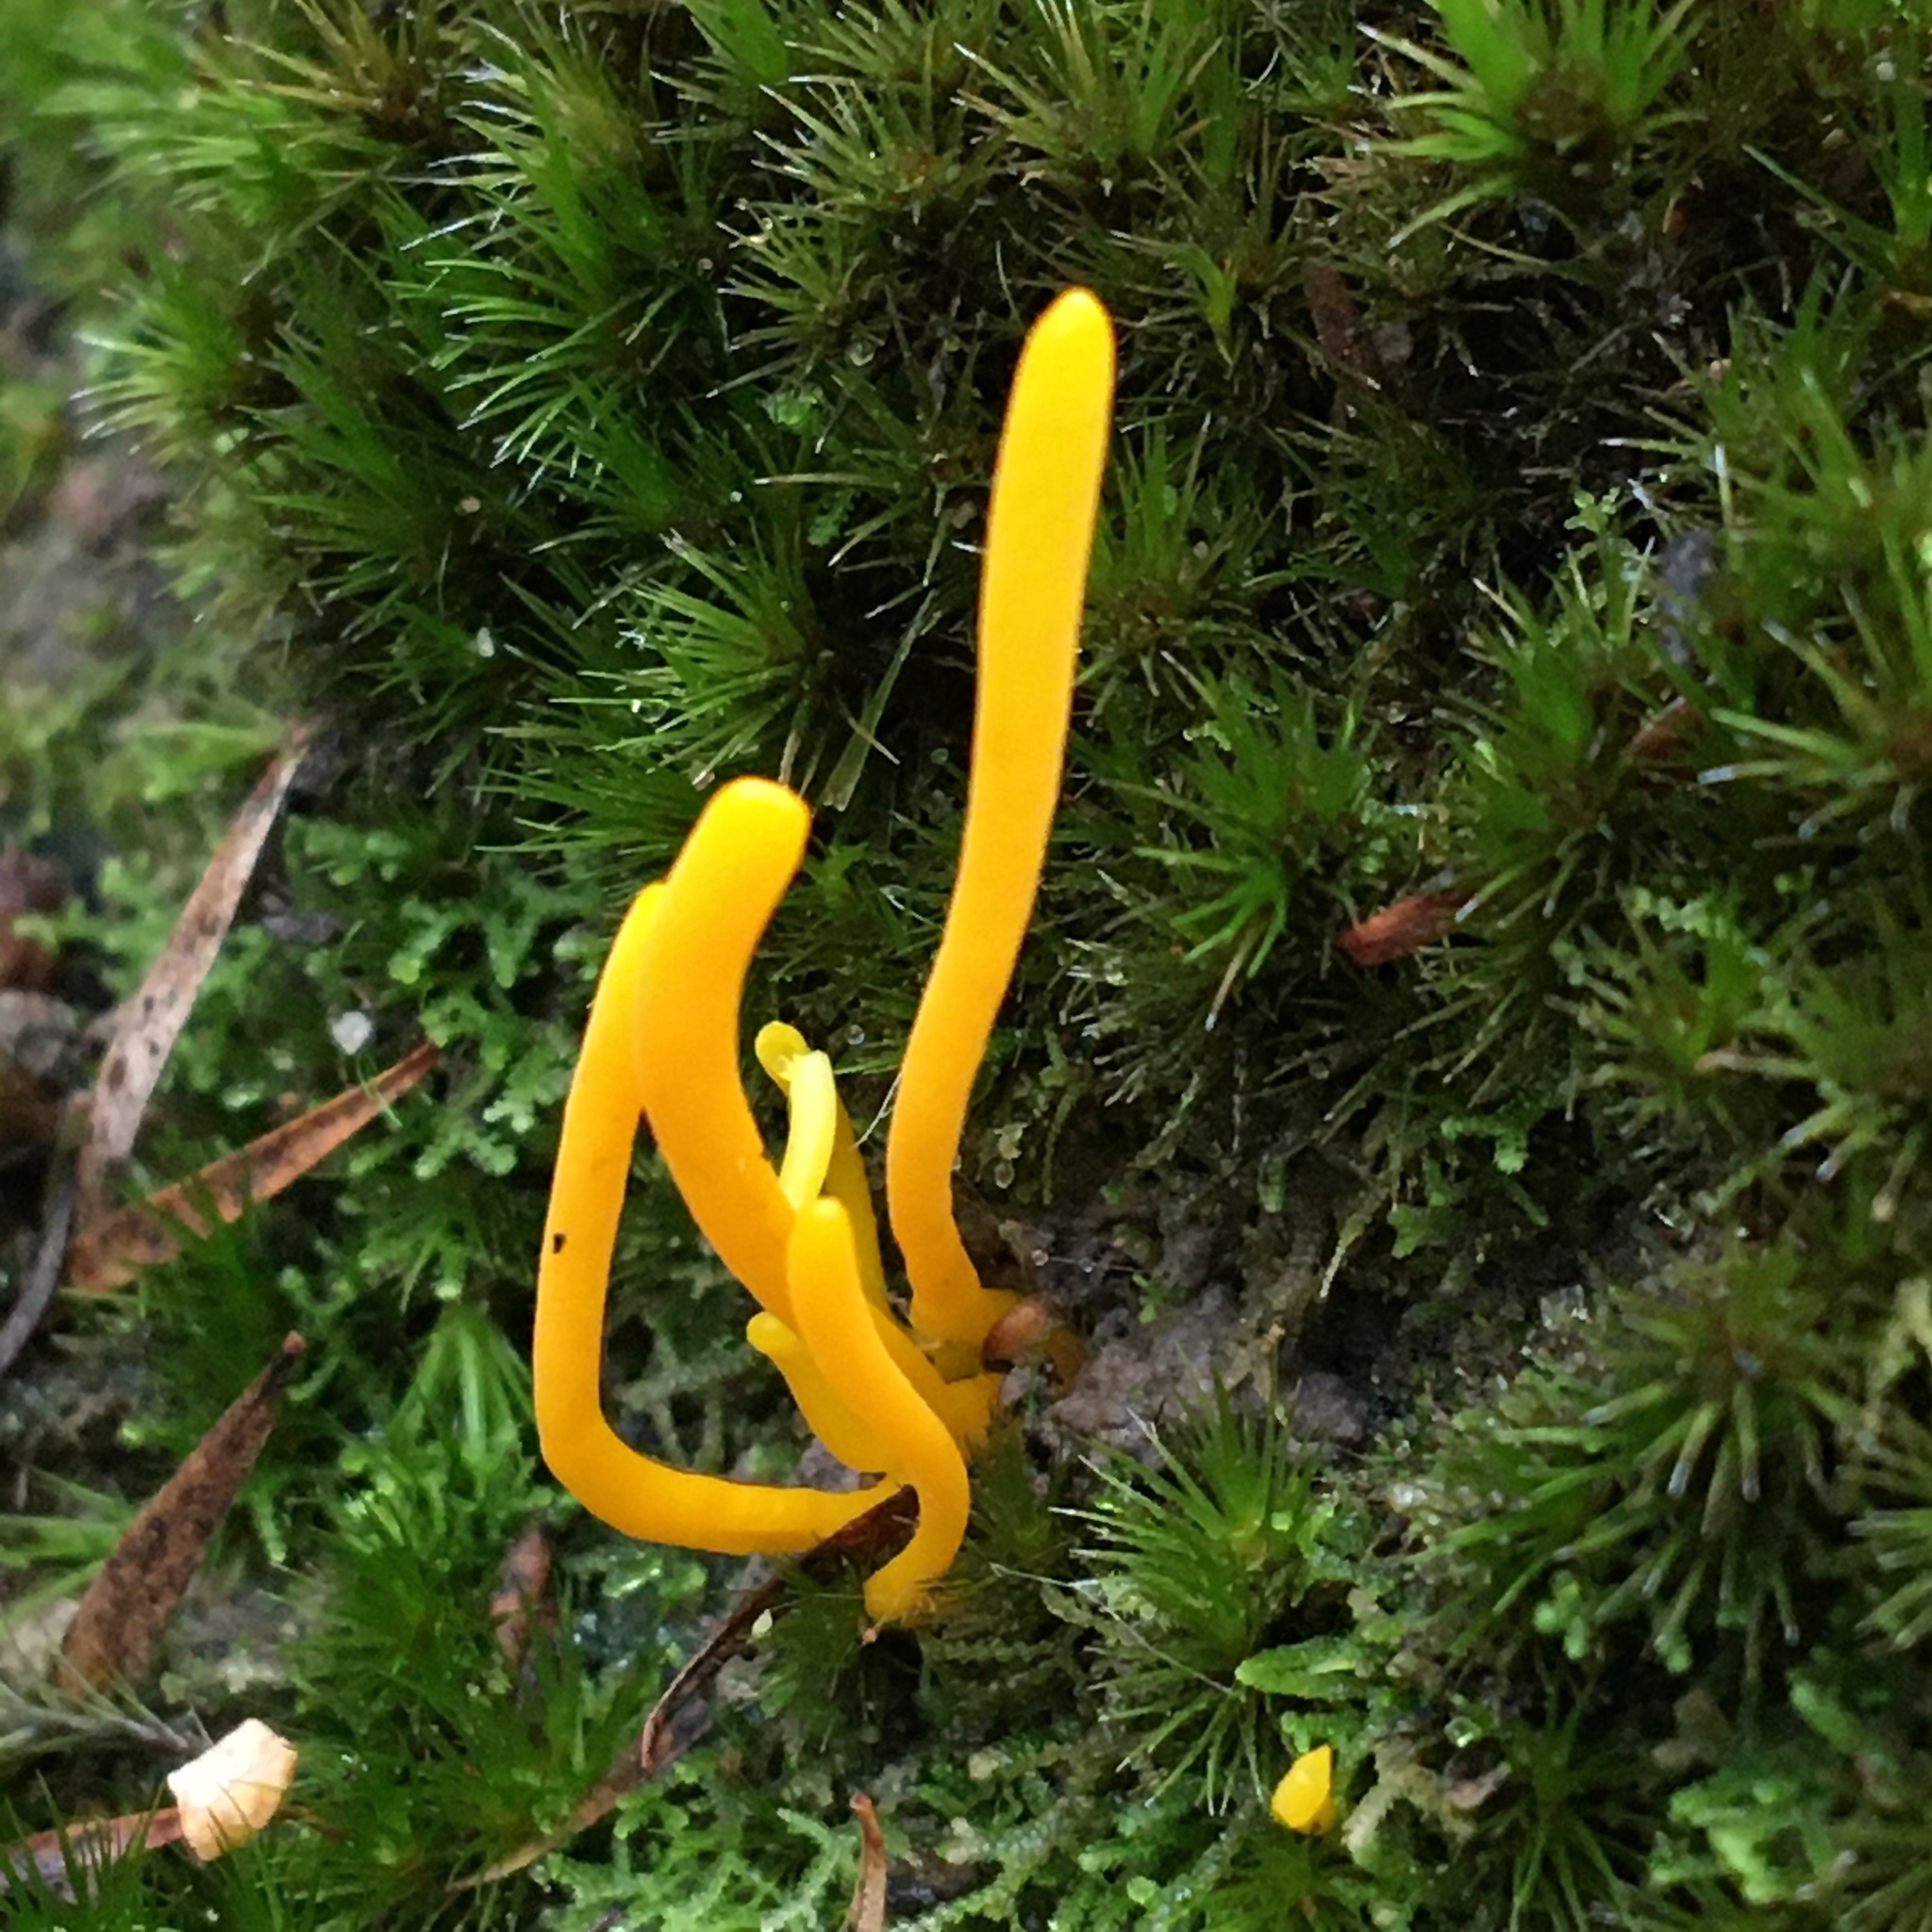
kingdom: Fungi
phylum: Basidiomycota
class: Agaricomycetes
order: Agaricales
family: Clavariaceae
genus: Clavulinopsis
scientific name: Clavulinopsis amoena
